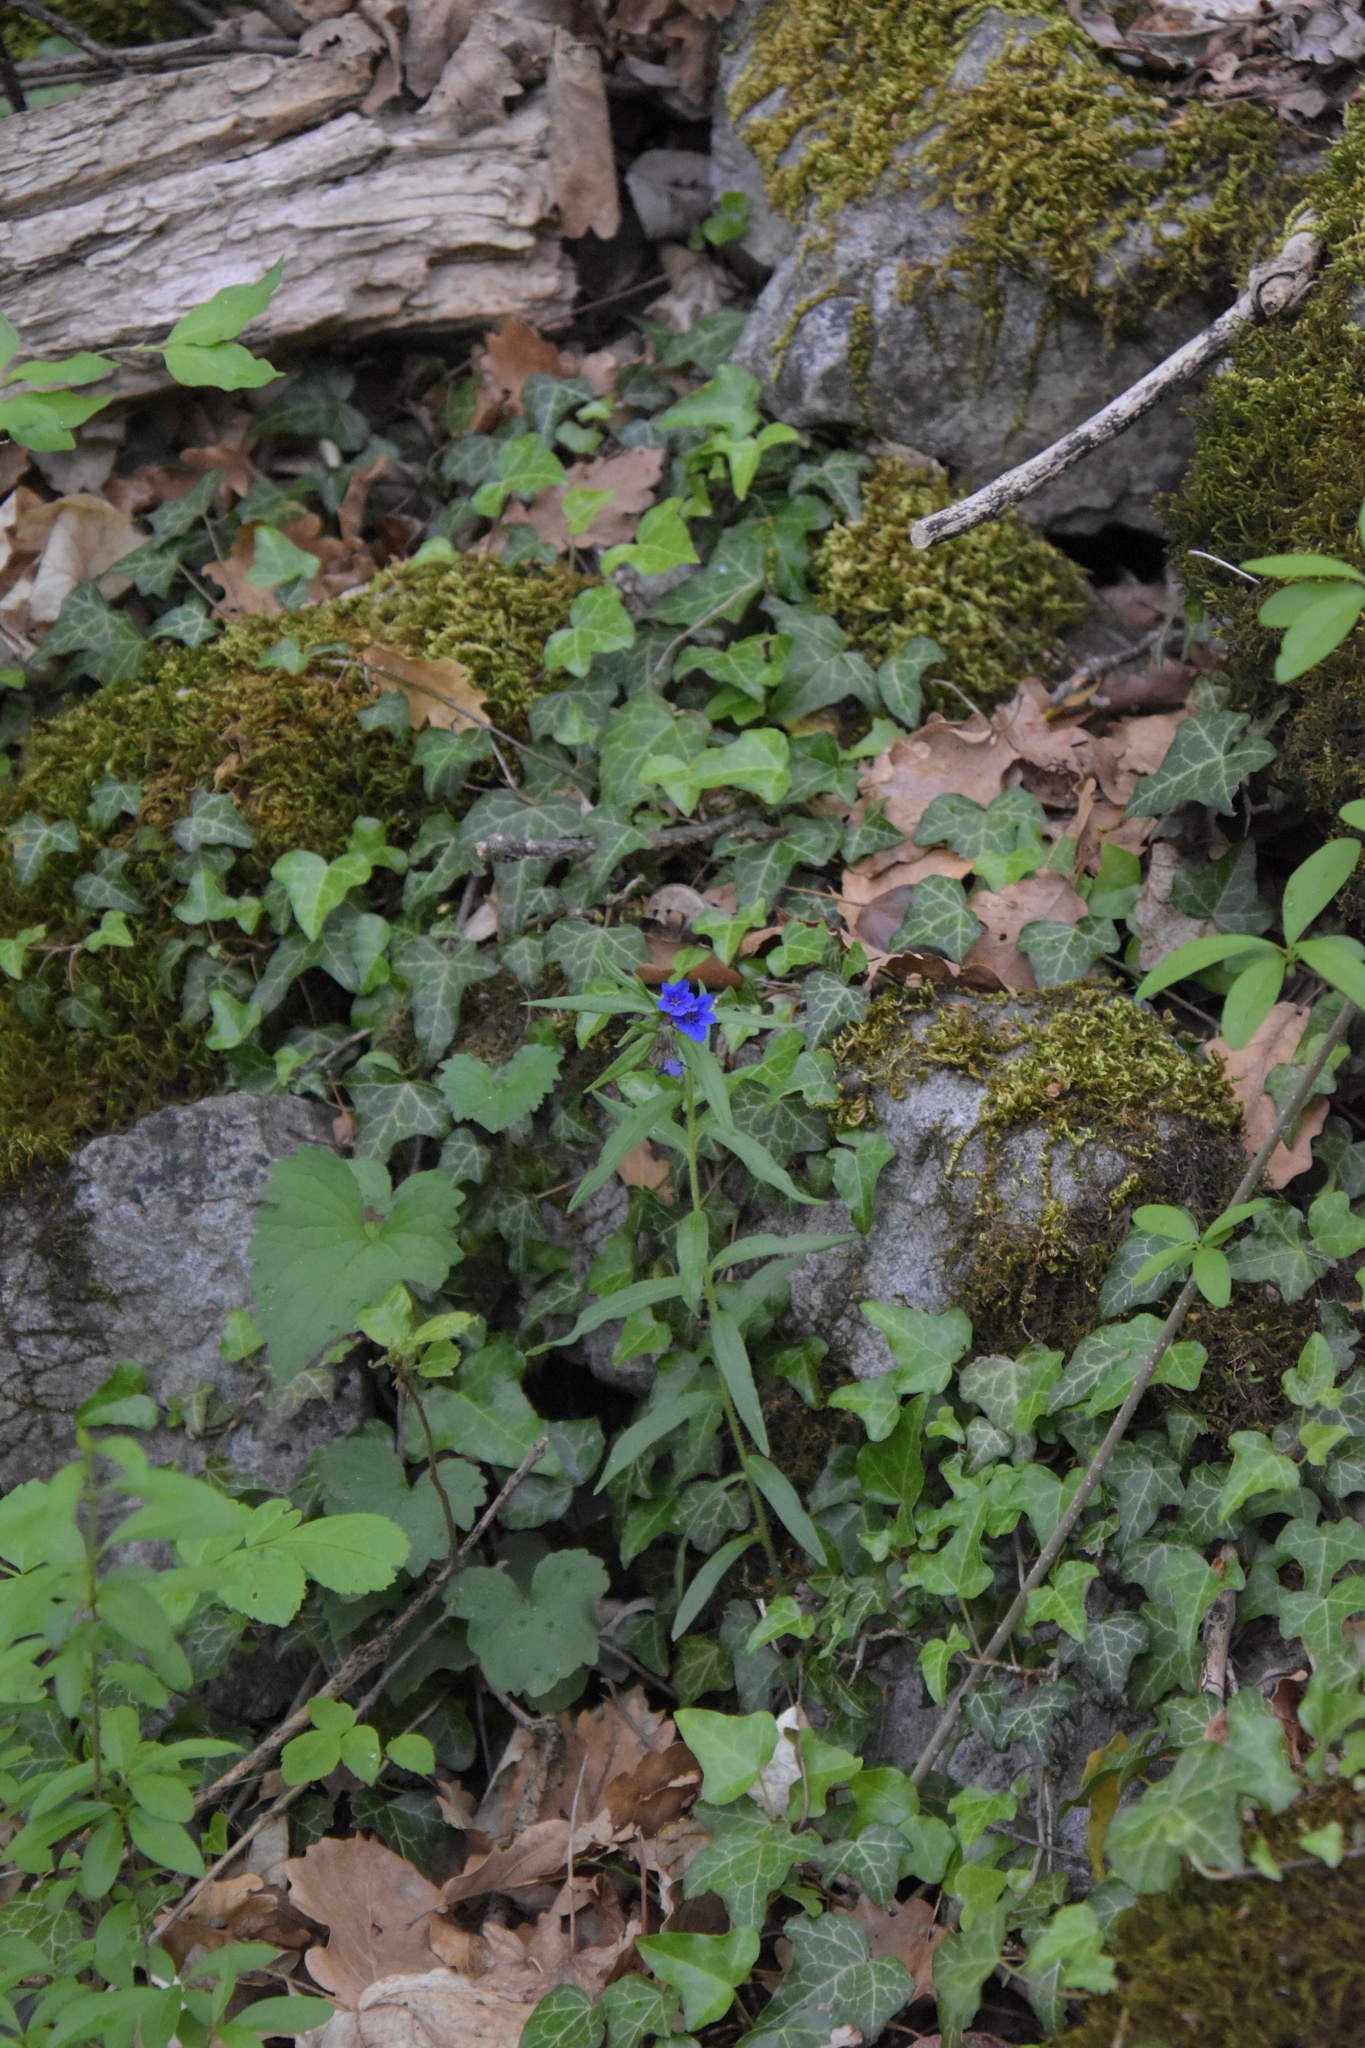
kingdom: Plantae
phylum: Tracheophyta
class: Magnoliopsida
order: Boraginales
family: Boraginaceae
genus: Aegonychon
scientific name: Aegonychon purpurocaeruleum
